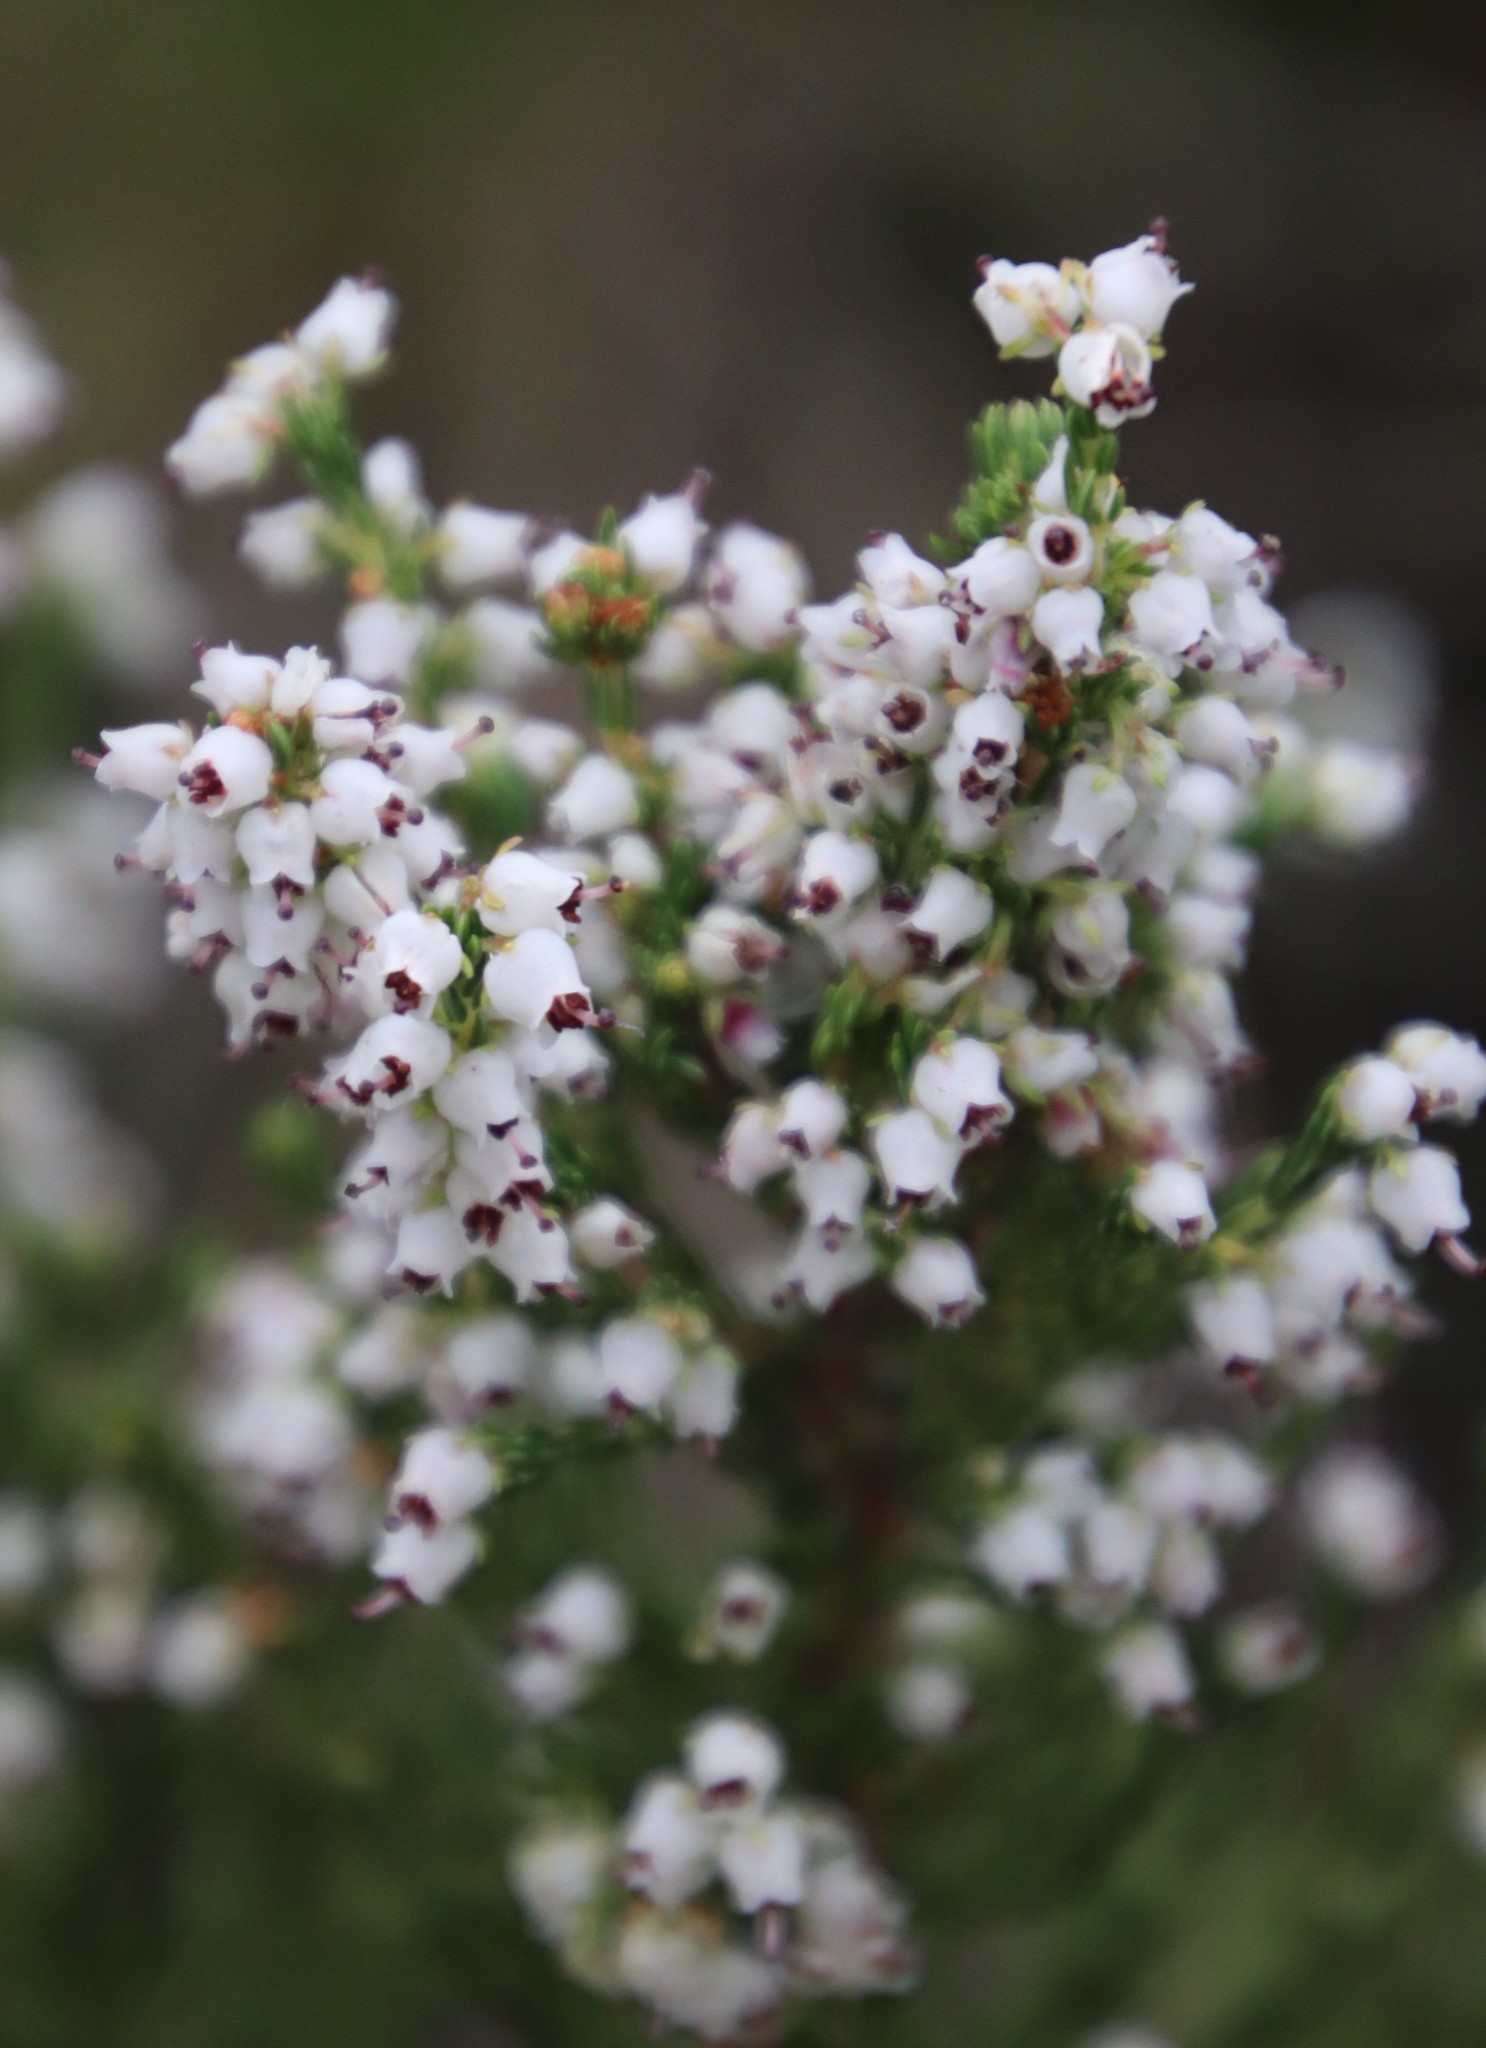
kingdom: Plantae
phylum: Tracheophyta
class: Magnoliopsida
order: Ericales
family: Ericaceae
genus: Erica
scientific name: Erica drakensbergensis
